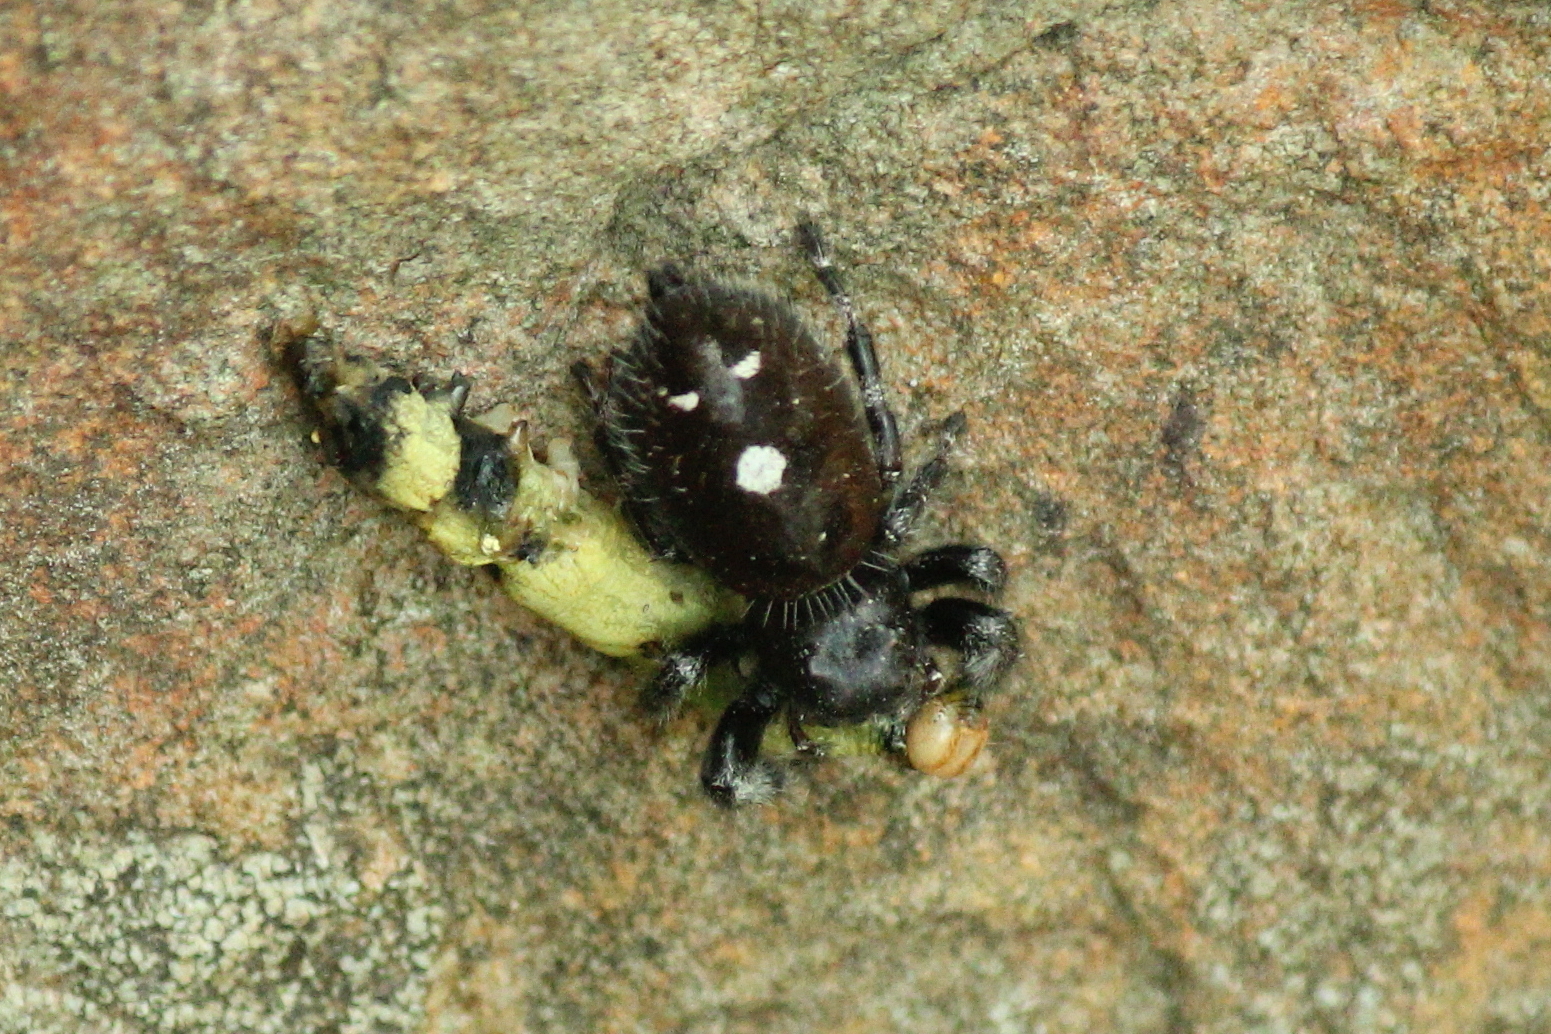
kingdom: Animalia
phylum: Arthropoda
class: Arachnida
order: Araneae
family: Salticidae
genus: Phidippus
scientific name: Phidippus audax
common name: Bold jumper
